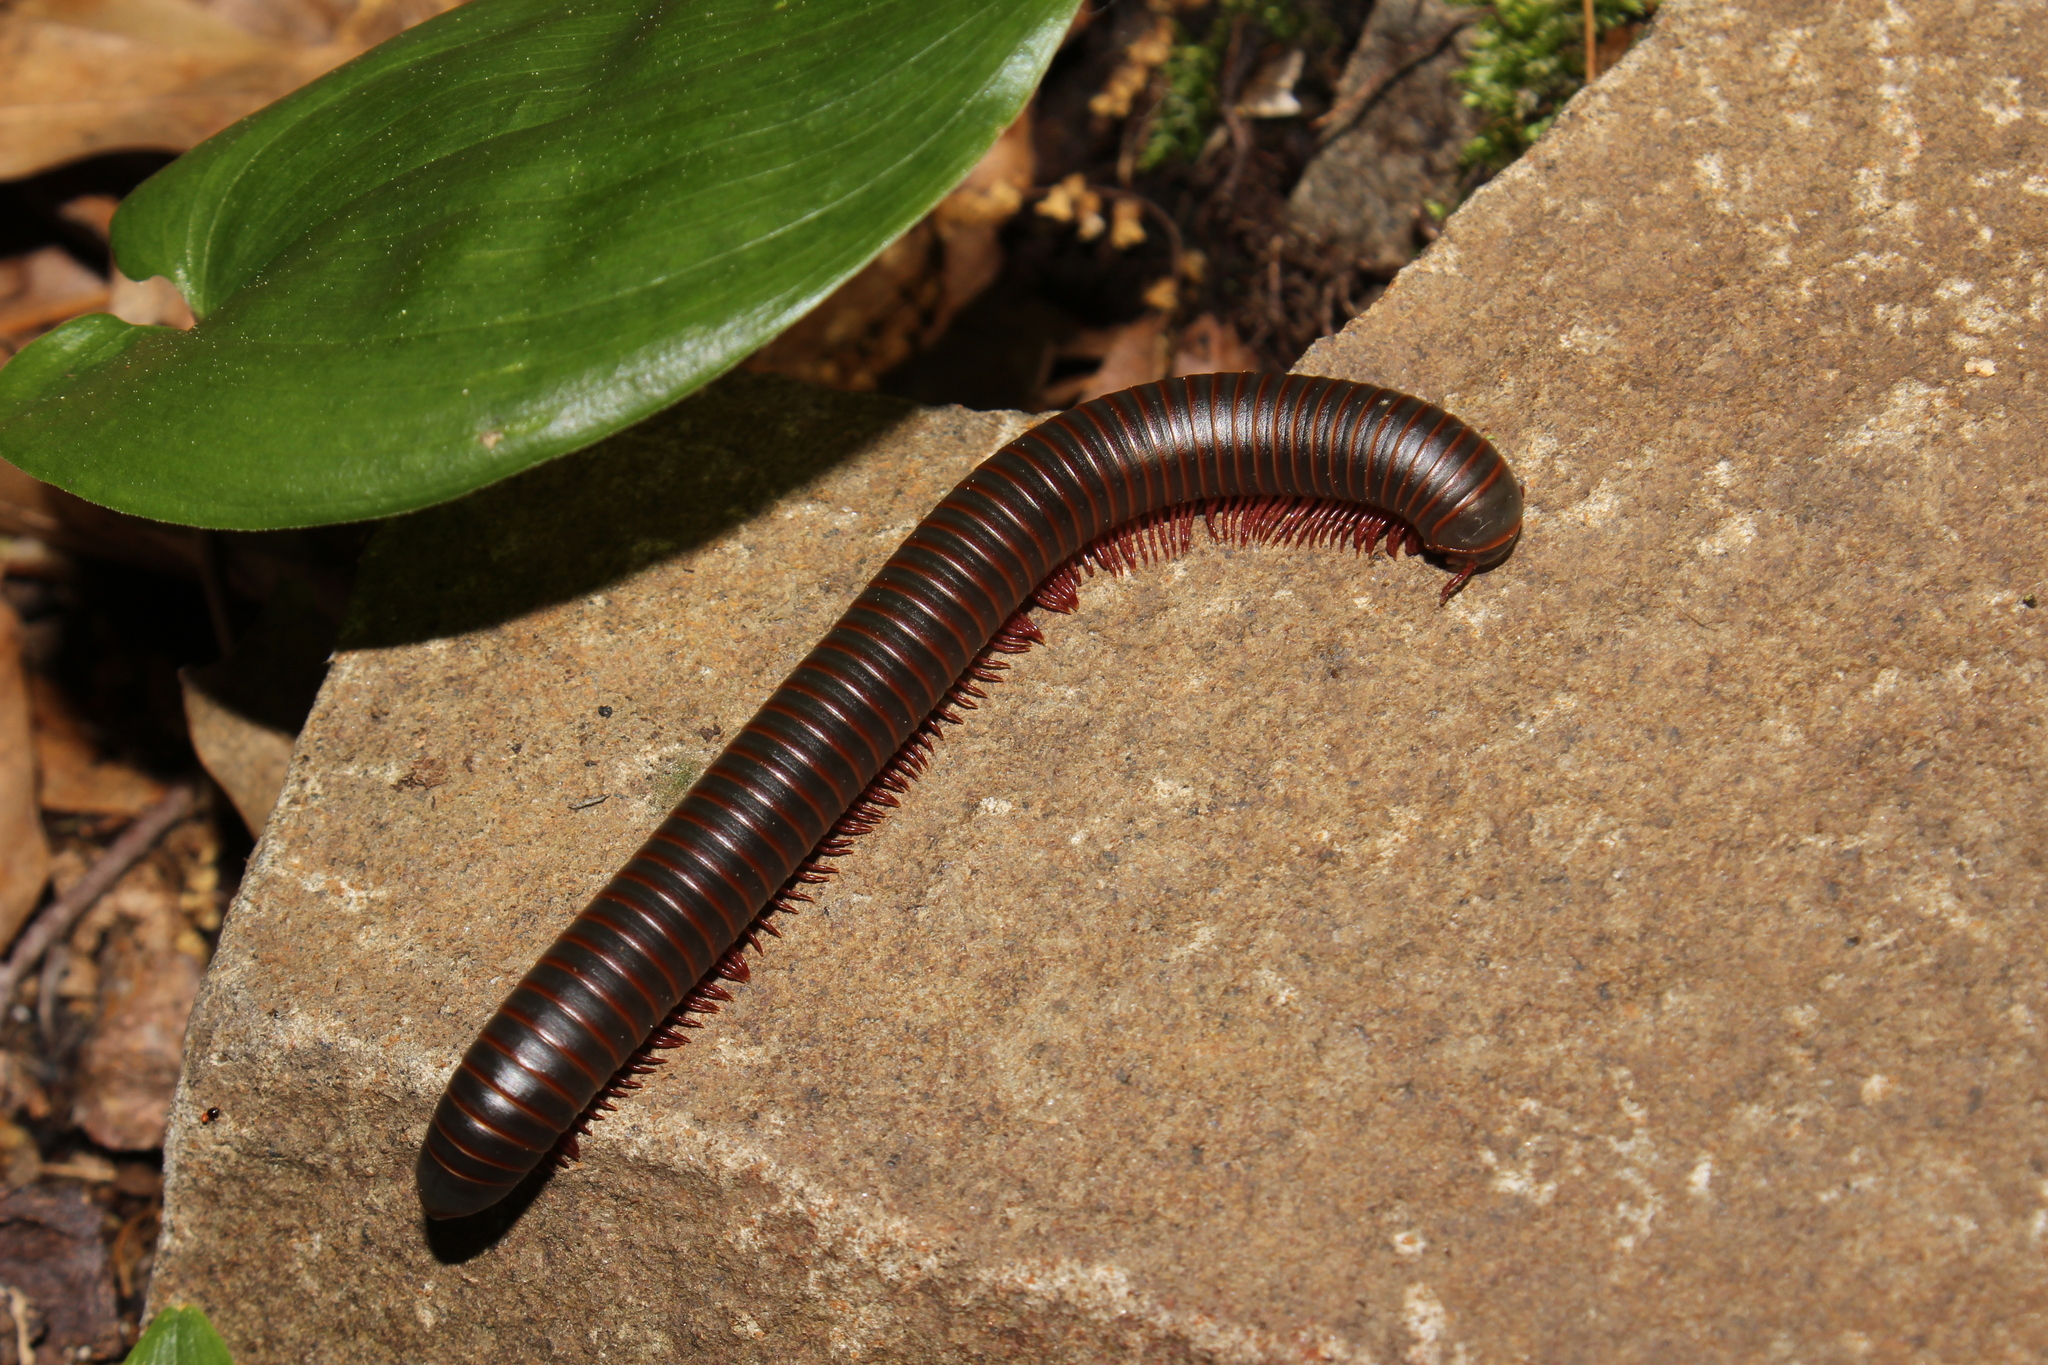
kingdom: Animalia
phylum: Arthropoda
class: Diplopoda
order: Spirobolida
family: Spirobolidae
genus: Narceus
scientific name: Narceus
